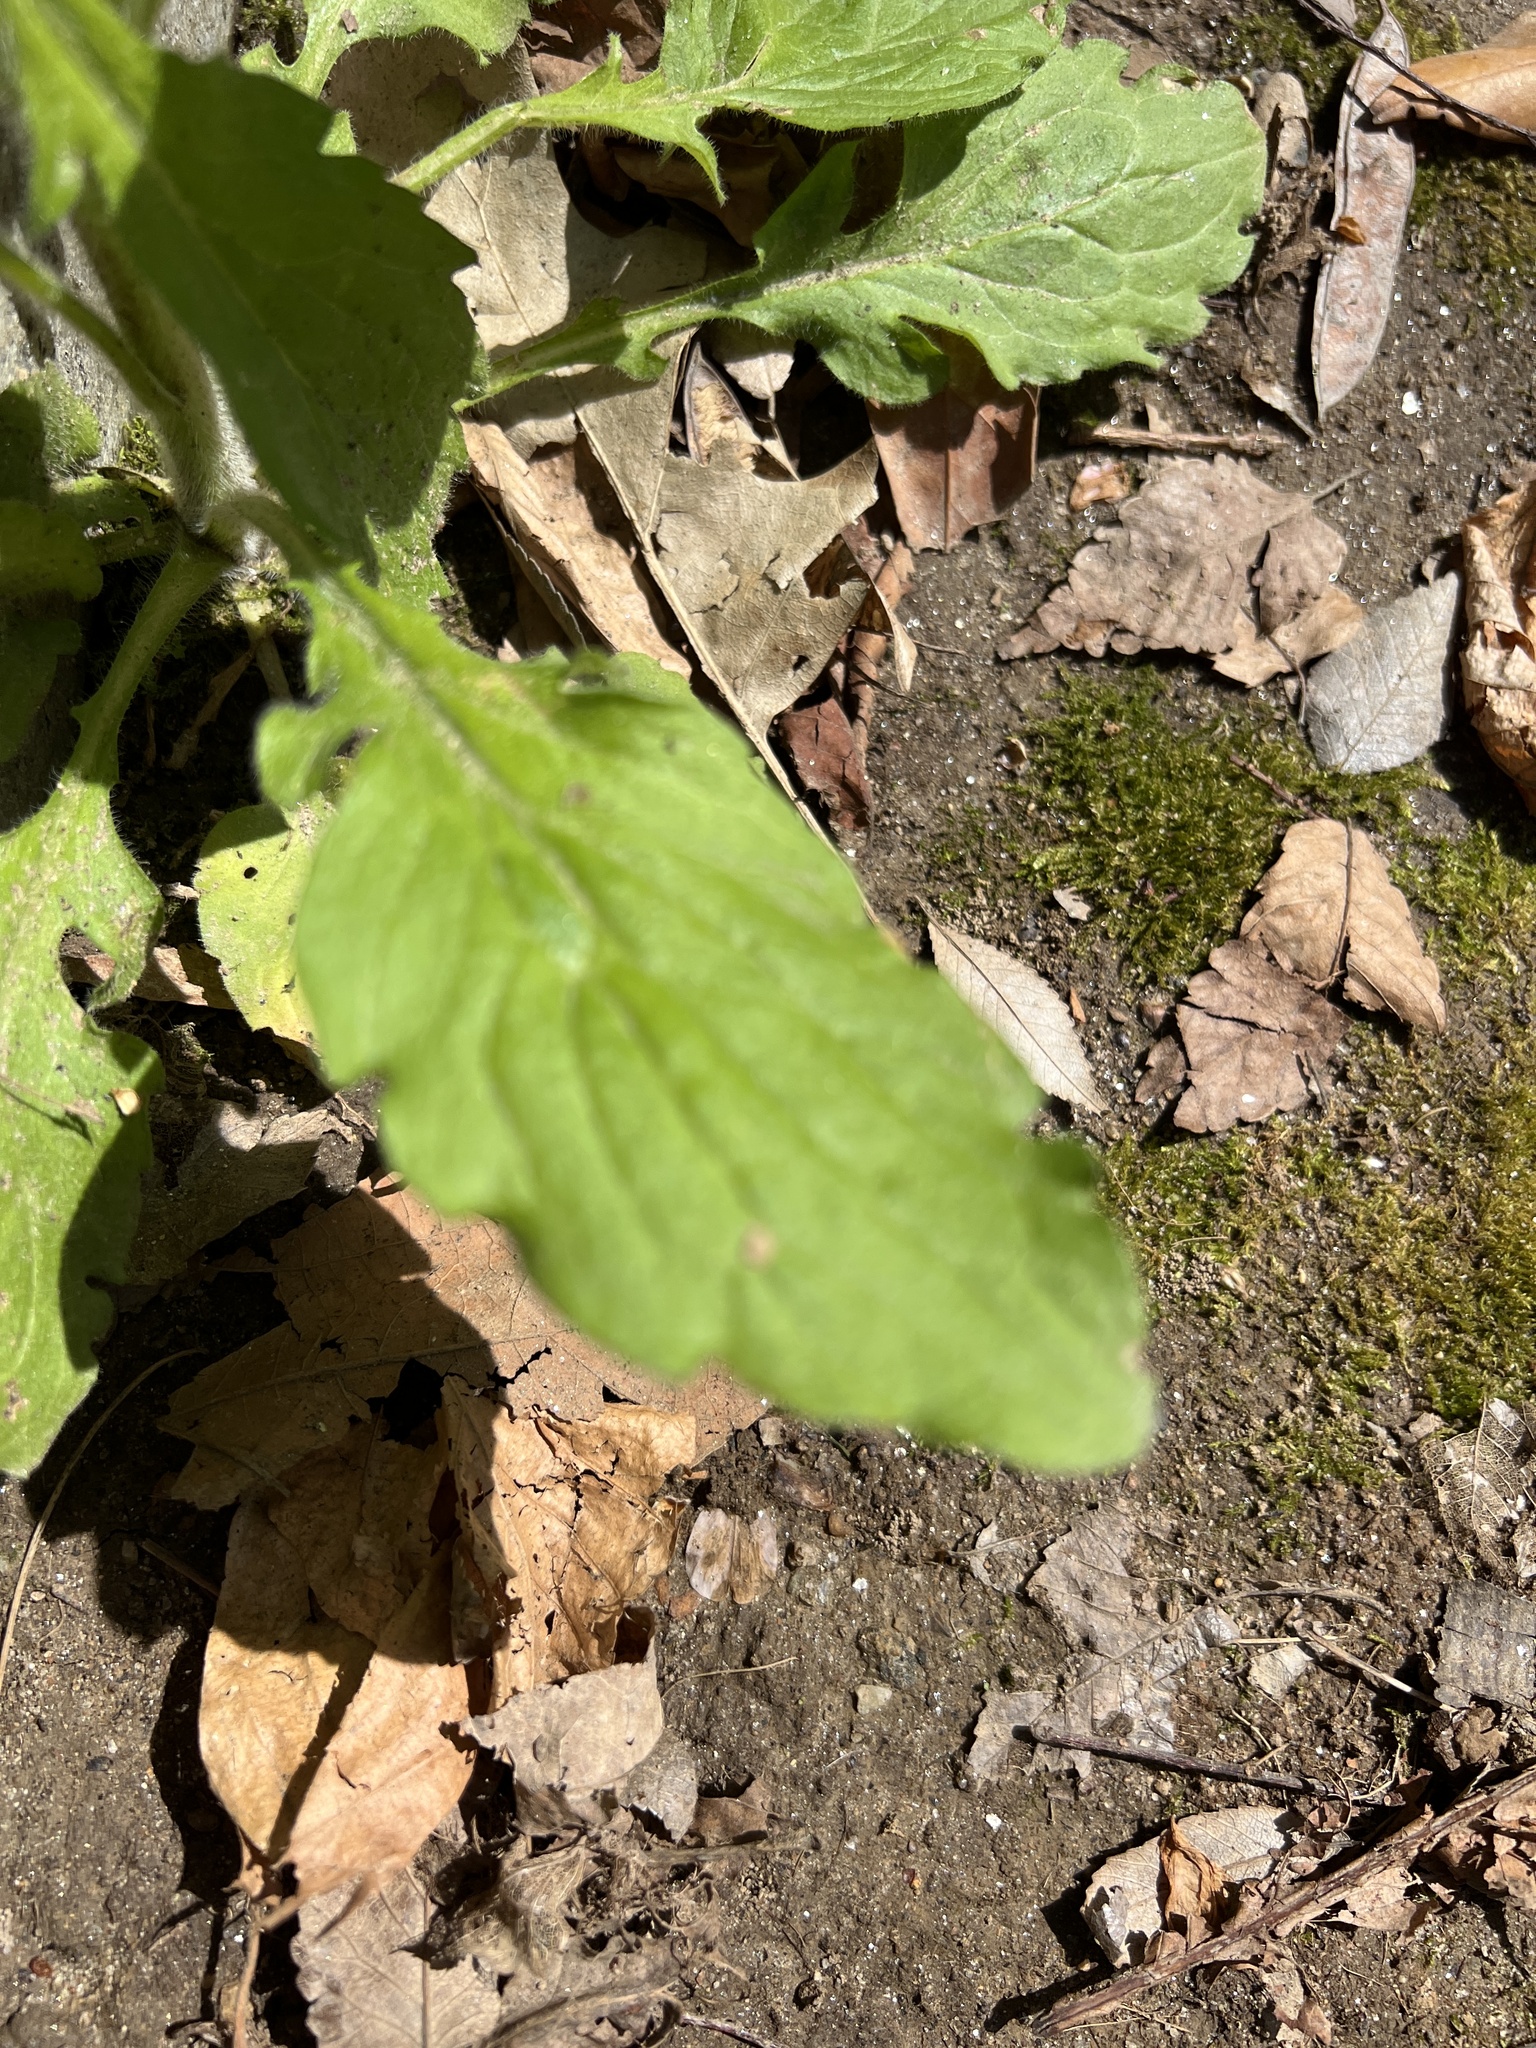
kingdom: Plantae
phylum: Tracheophyta
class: Magnoliopsida
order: Asterales
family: Asteraceae
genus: Erigeron
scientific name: Erigeron annuus
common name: Tall fleabane
